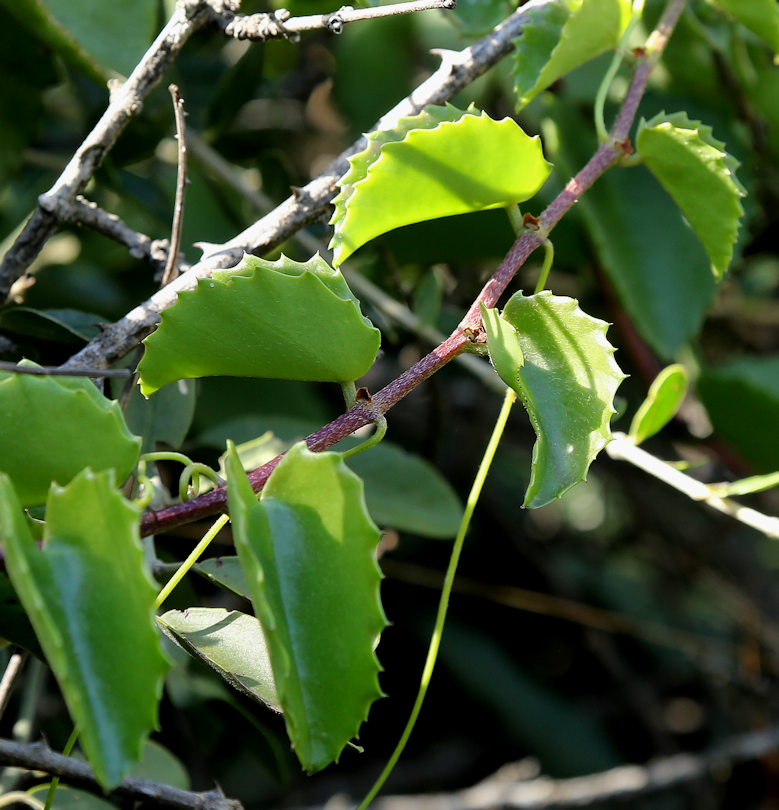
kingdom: Plantae
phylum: Tracheophyta
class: Magnoliopsida
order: Vitales
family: Vitaceae
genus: Cissus
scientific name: Cissus rotundifolia
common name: Arabian wax cissus
